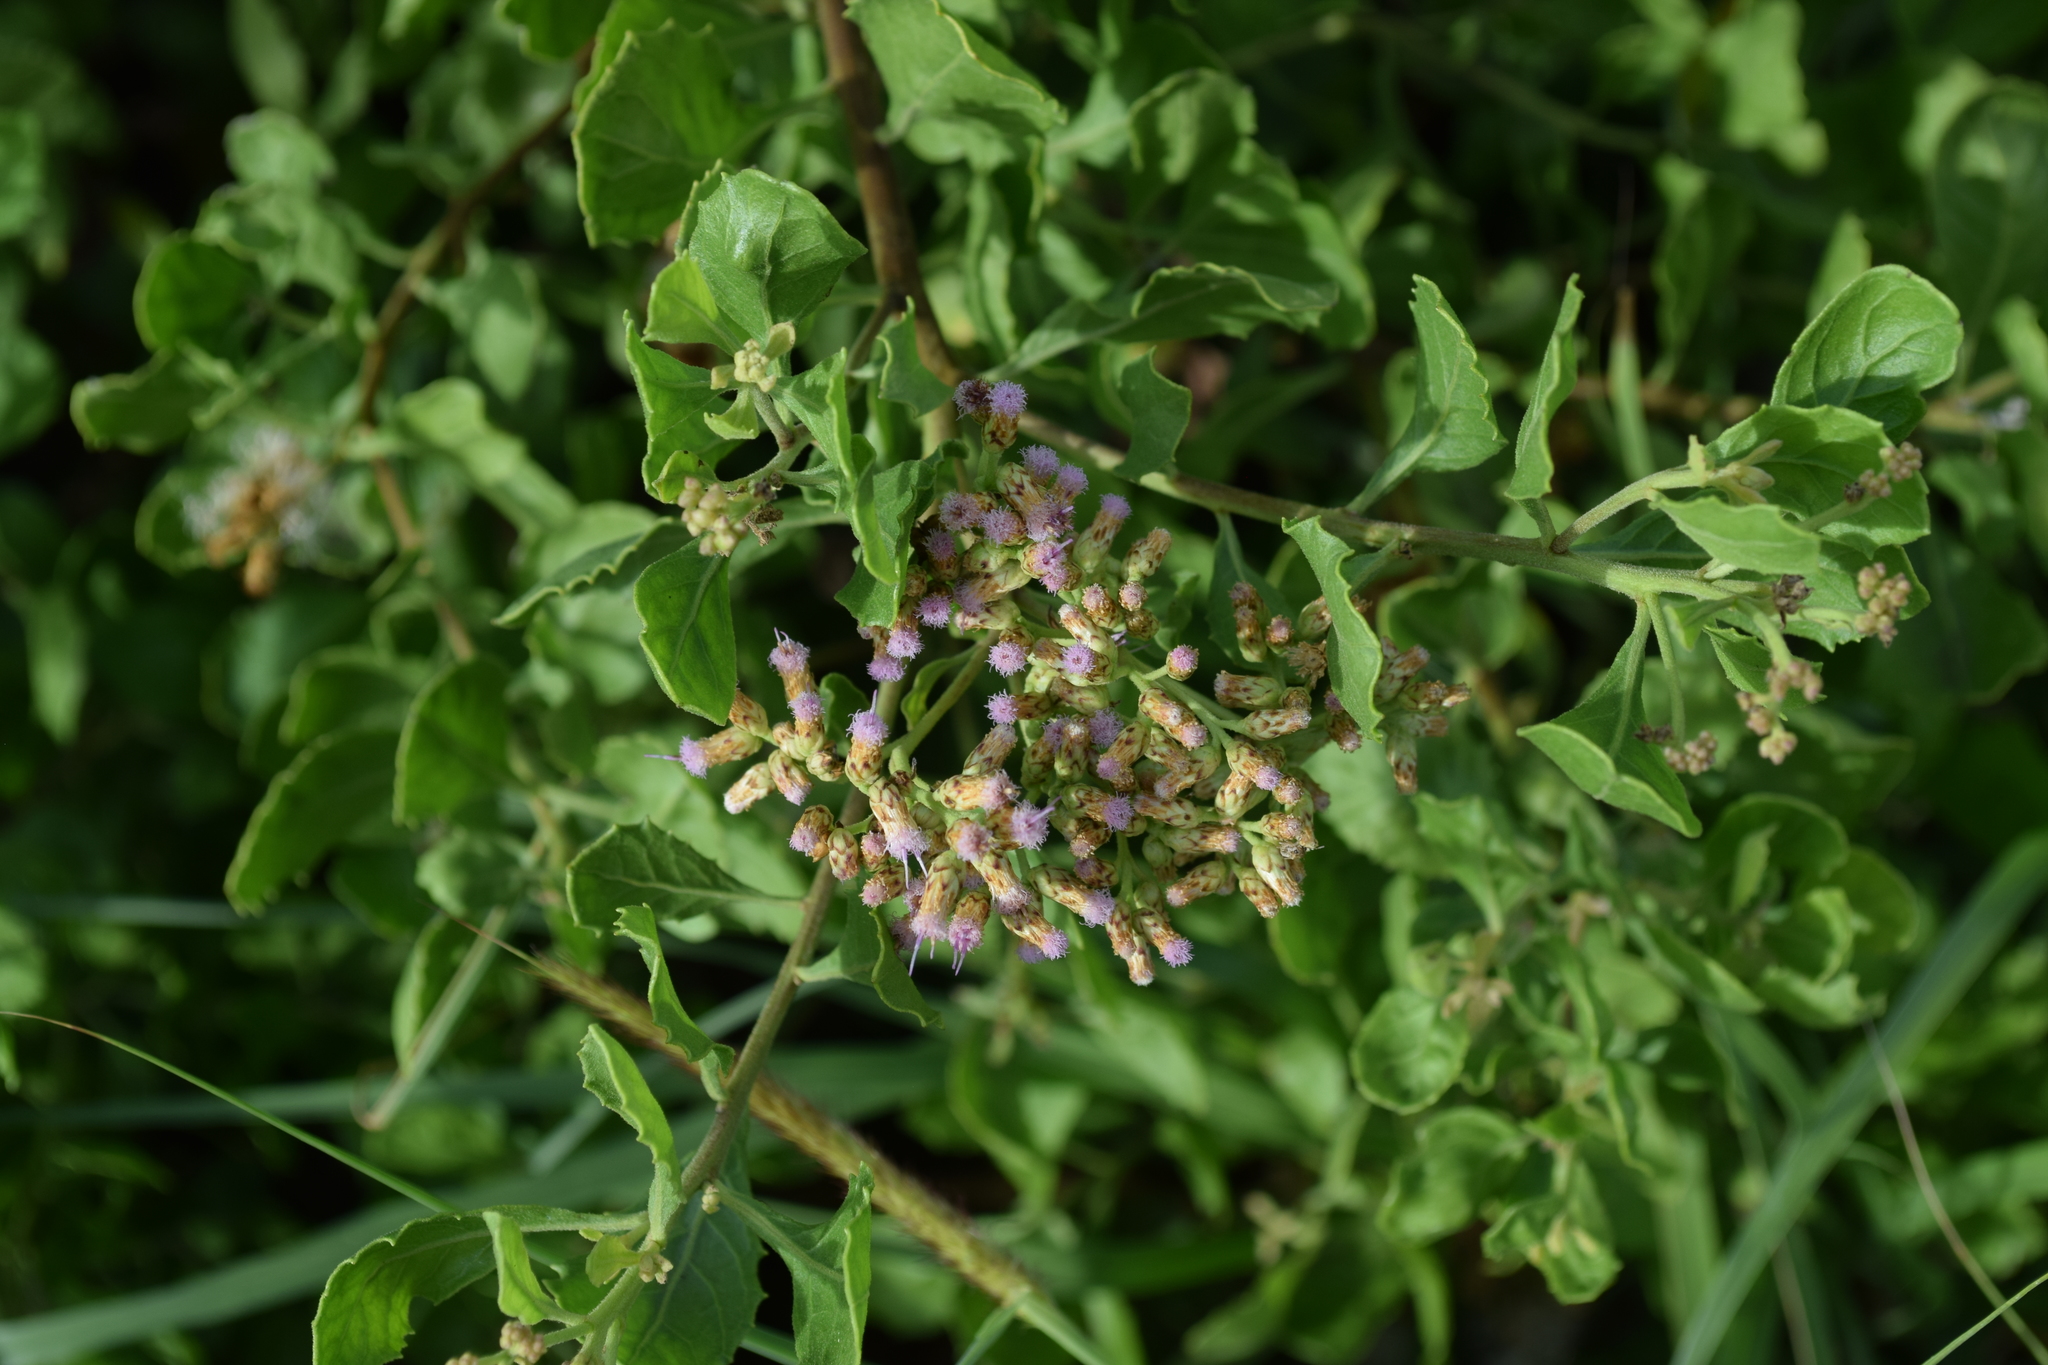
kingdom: Plantae
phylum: Tracheophyta
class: Magnoliopsida
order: Asterales
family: Asteraceae
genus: Pluchea
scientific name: Pluchea indica
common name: Indian fleabane
